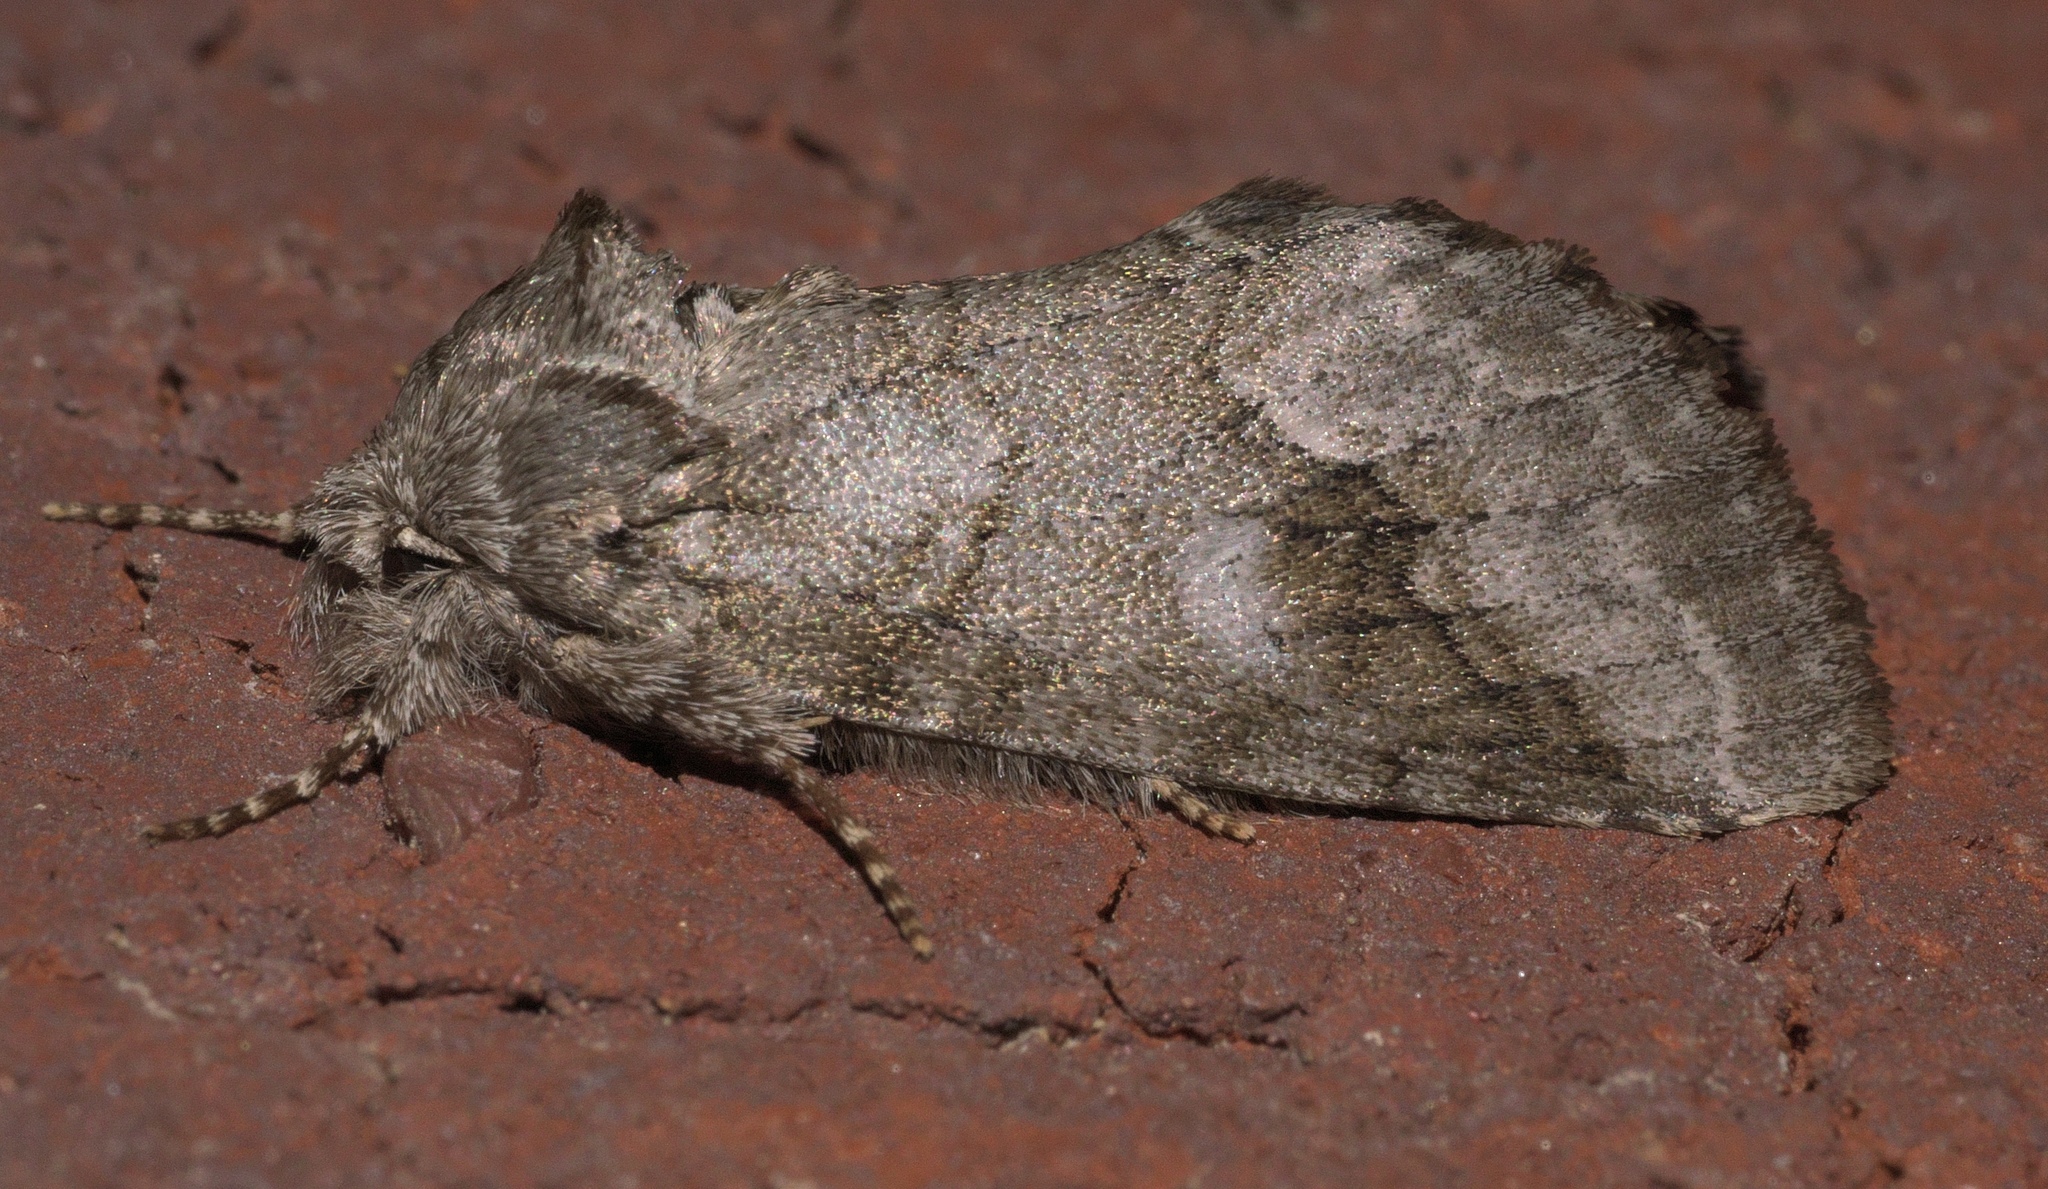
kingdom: Animalia
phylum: Arthropoda
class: Insecta
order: Lepidoptera
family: Notodontidae
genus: Lochmaeus
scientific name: Lochmaeus bilineata
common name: Double-lined prominent
